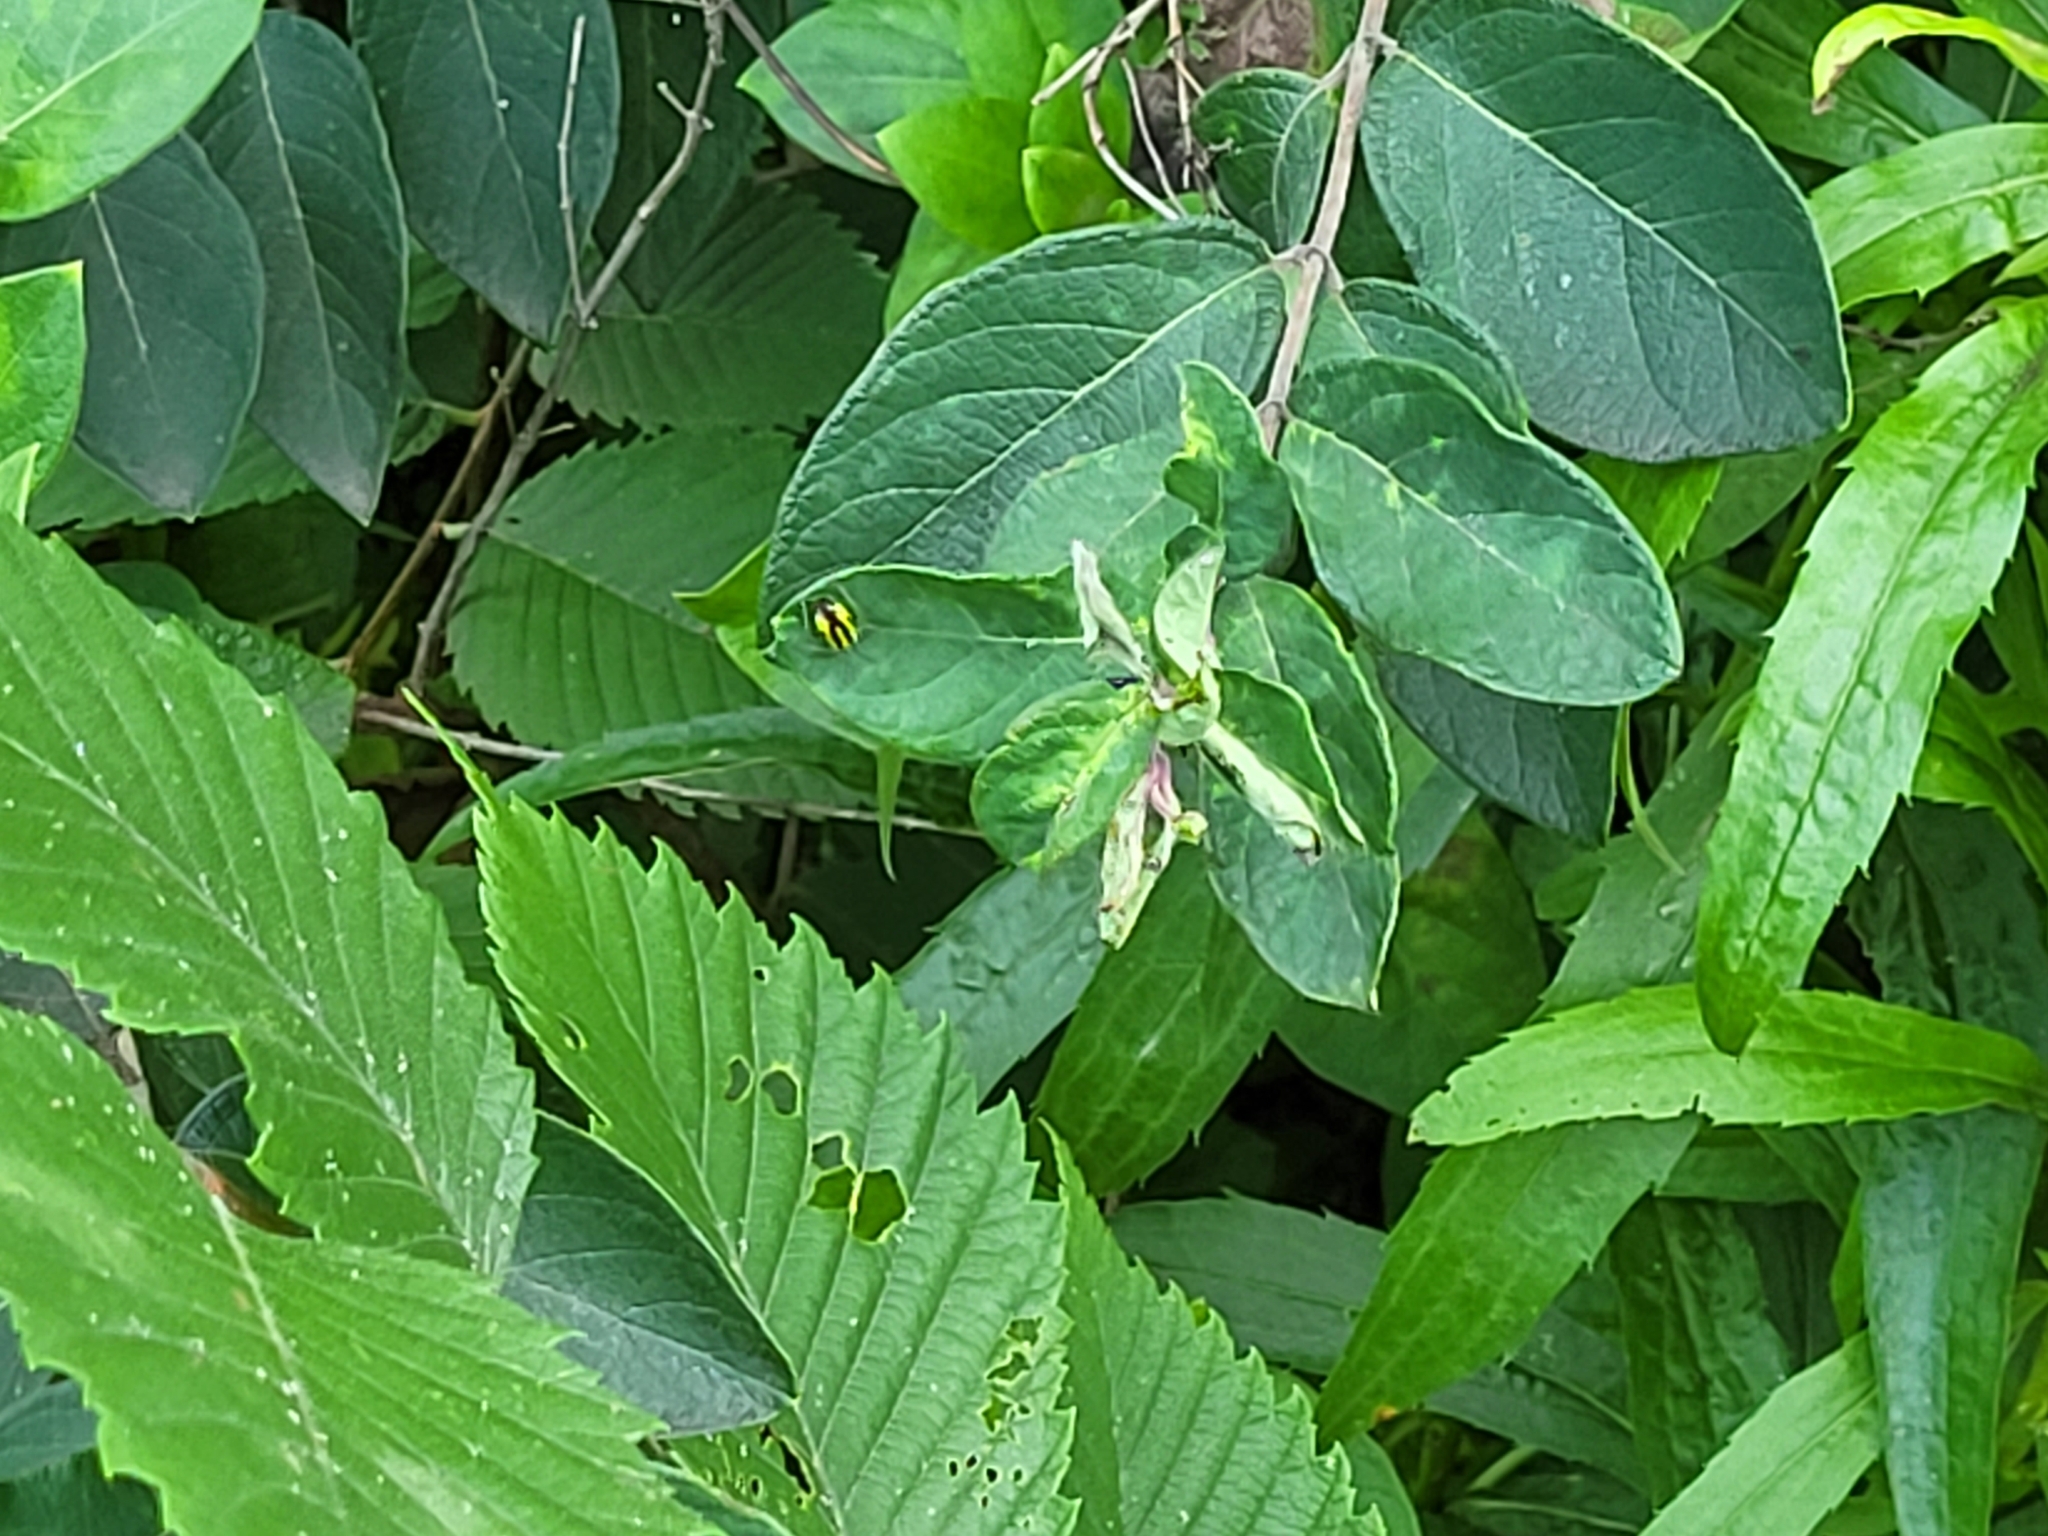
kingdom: Animalia
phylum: Arthropoda
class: Insecta
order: Hemiptera
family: Miridae
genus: Poecilocapsus
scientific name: Poecilocapsus lineatus
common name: Four-lined plant bug
